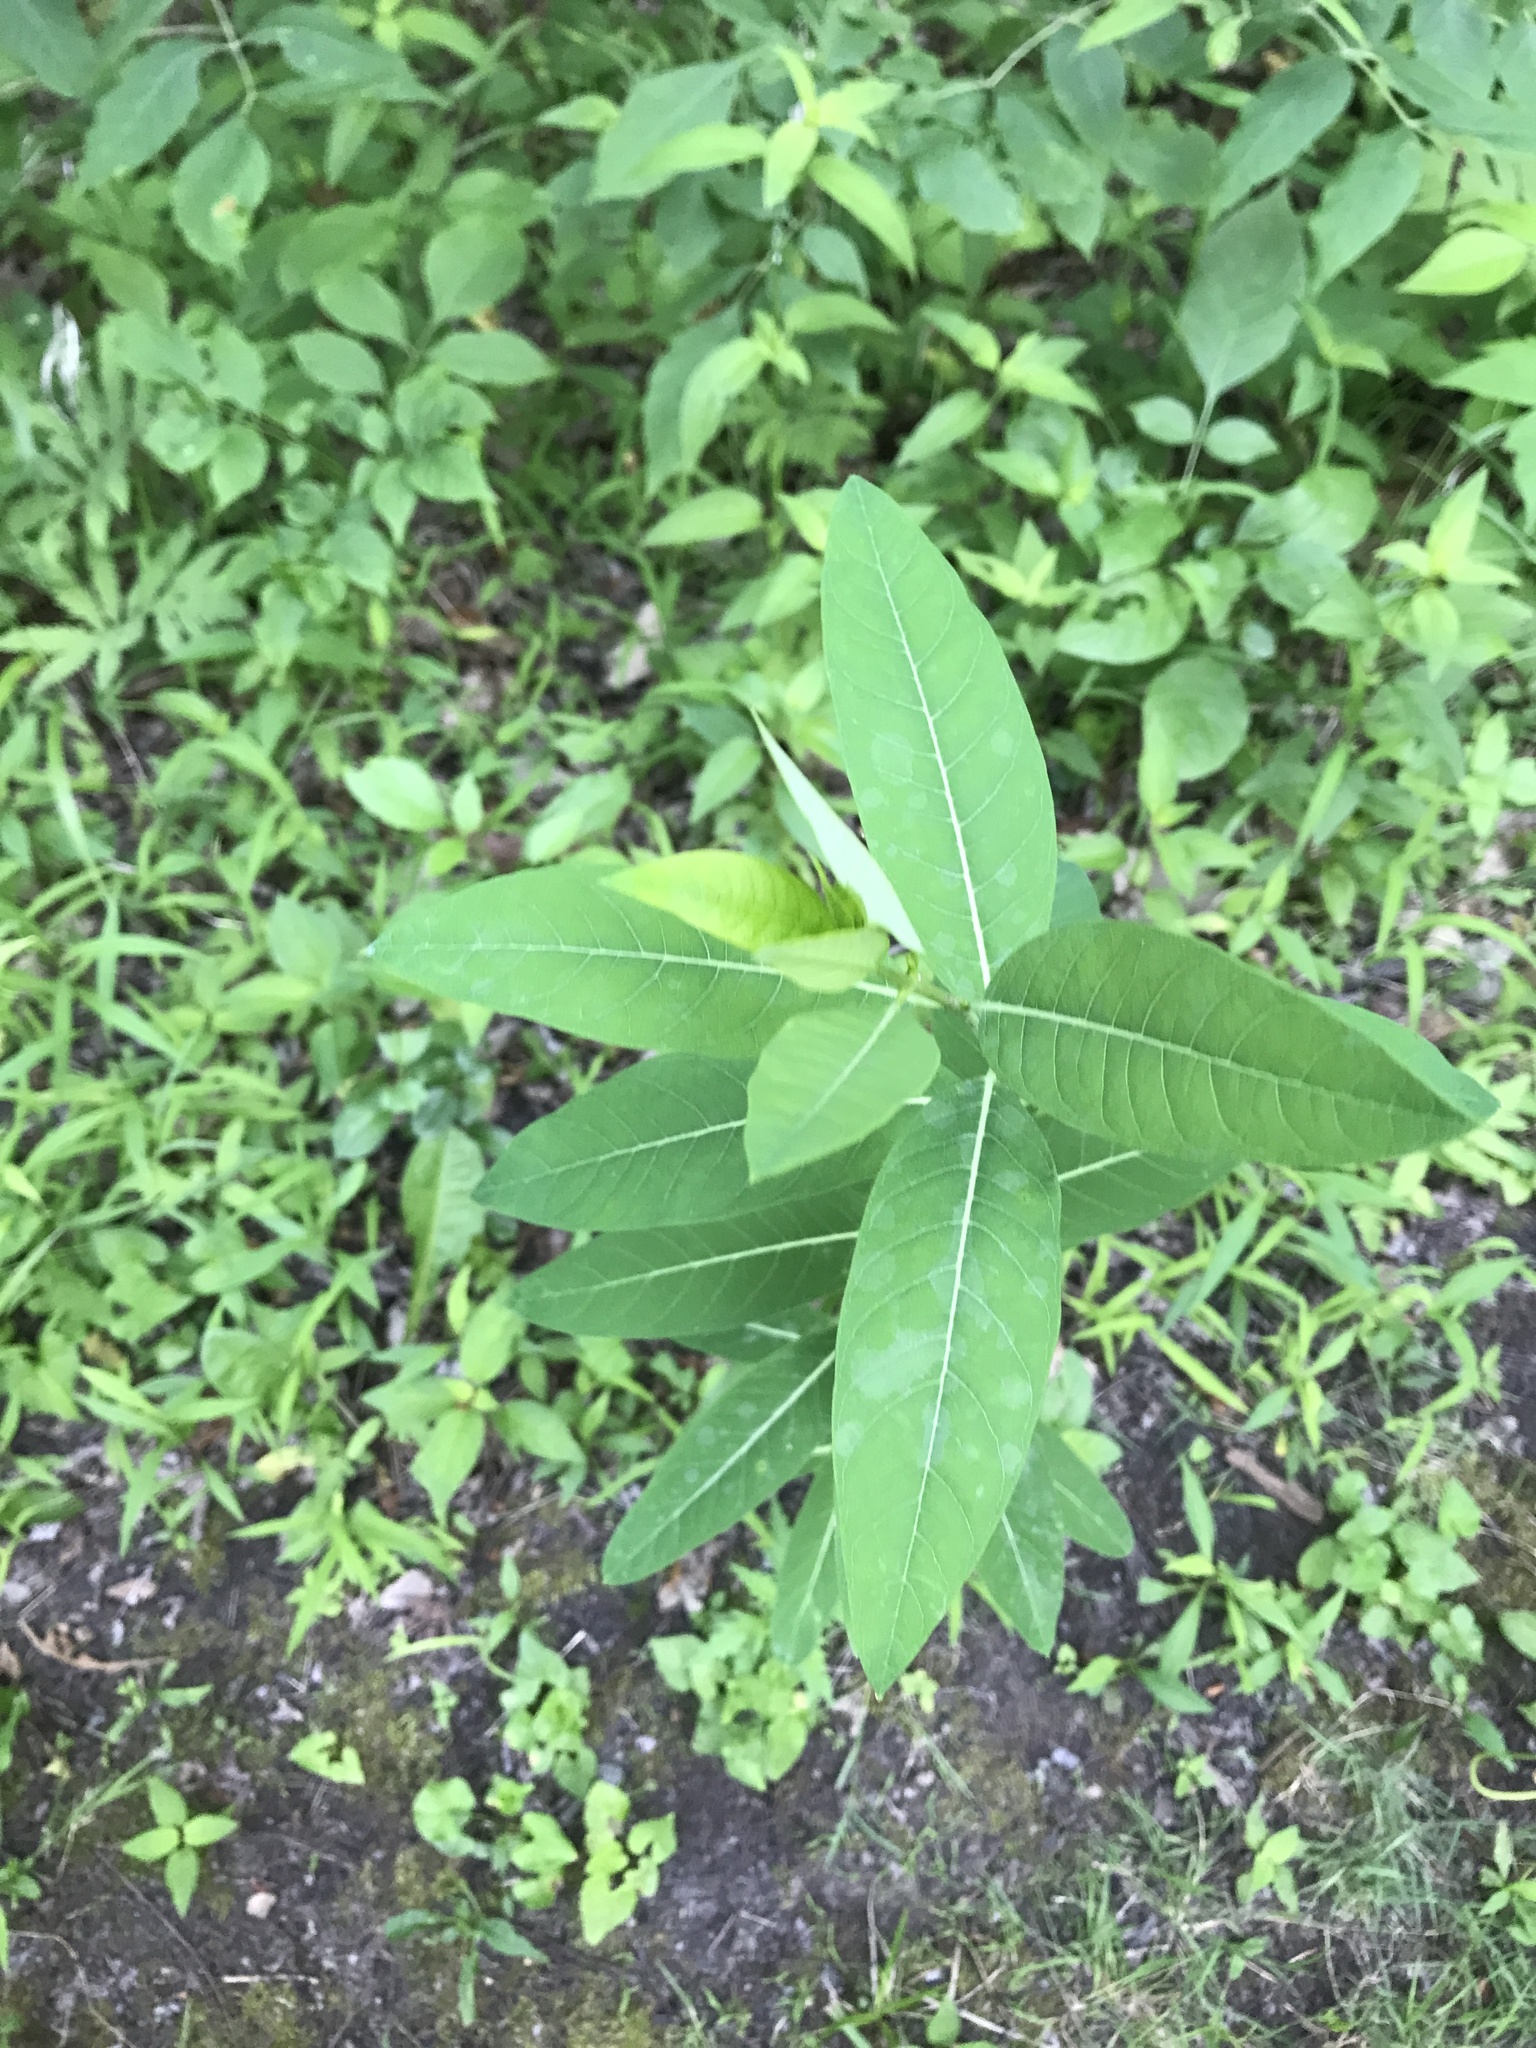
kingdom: Plantae
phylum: Tracheophyta
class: Magnoliopsida
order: Gentianales
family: Apocynaceae
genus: Apocynum
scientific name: Apocynum cannabinum
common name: Hemp dogbane
